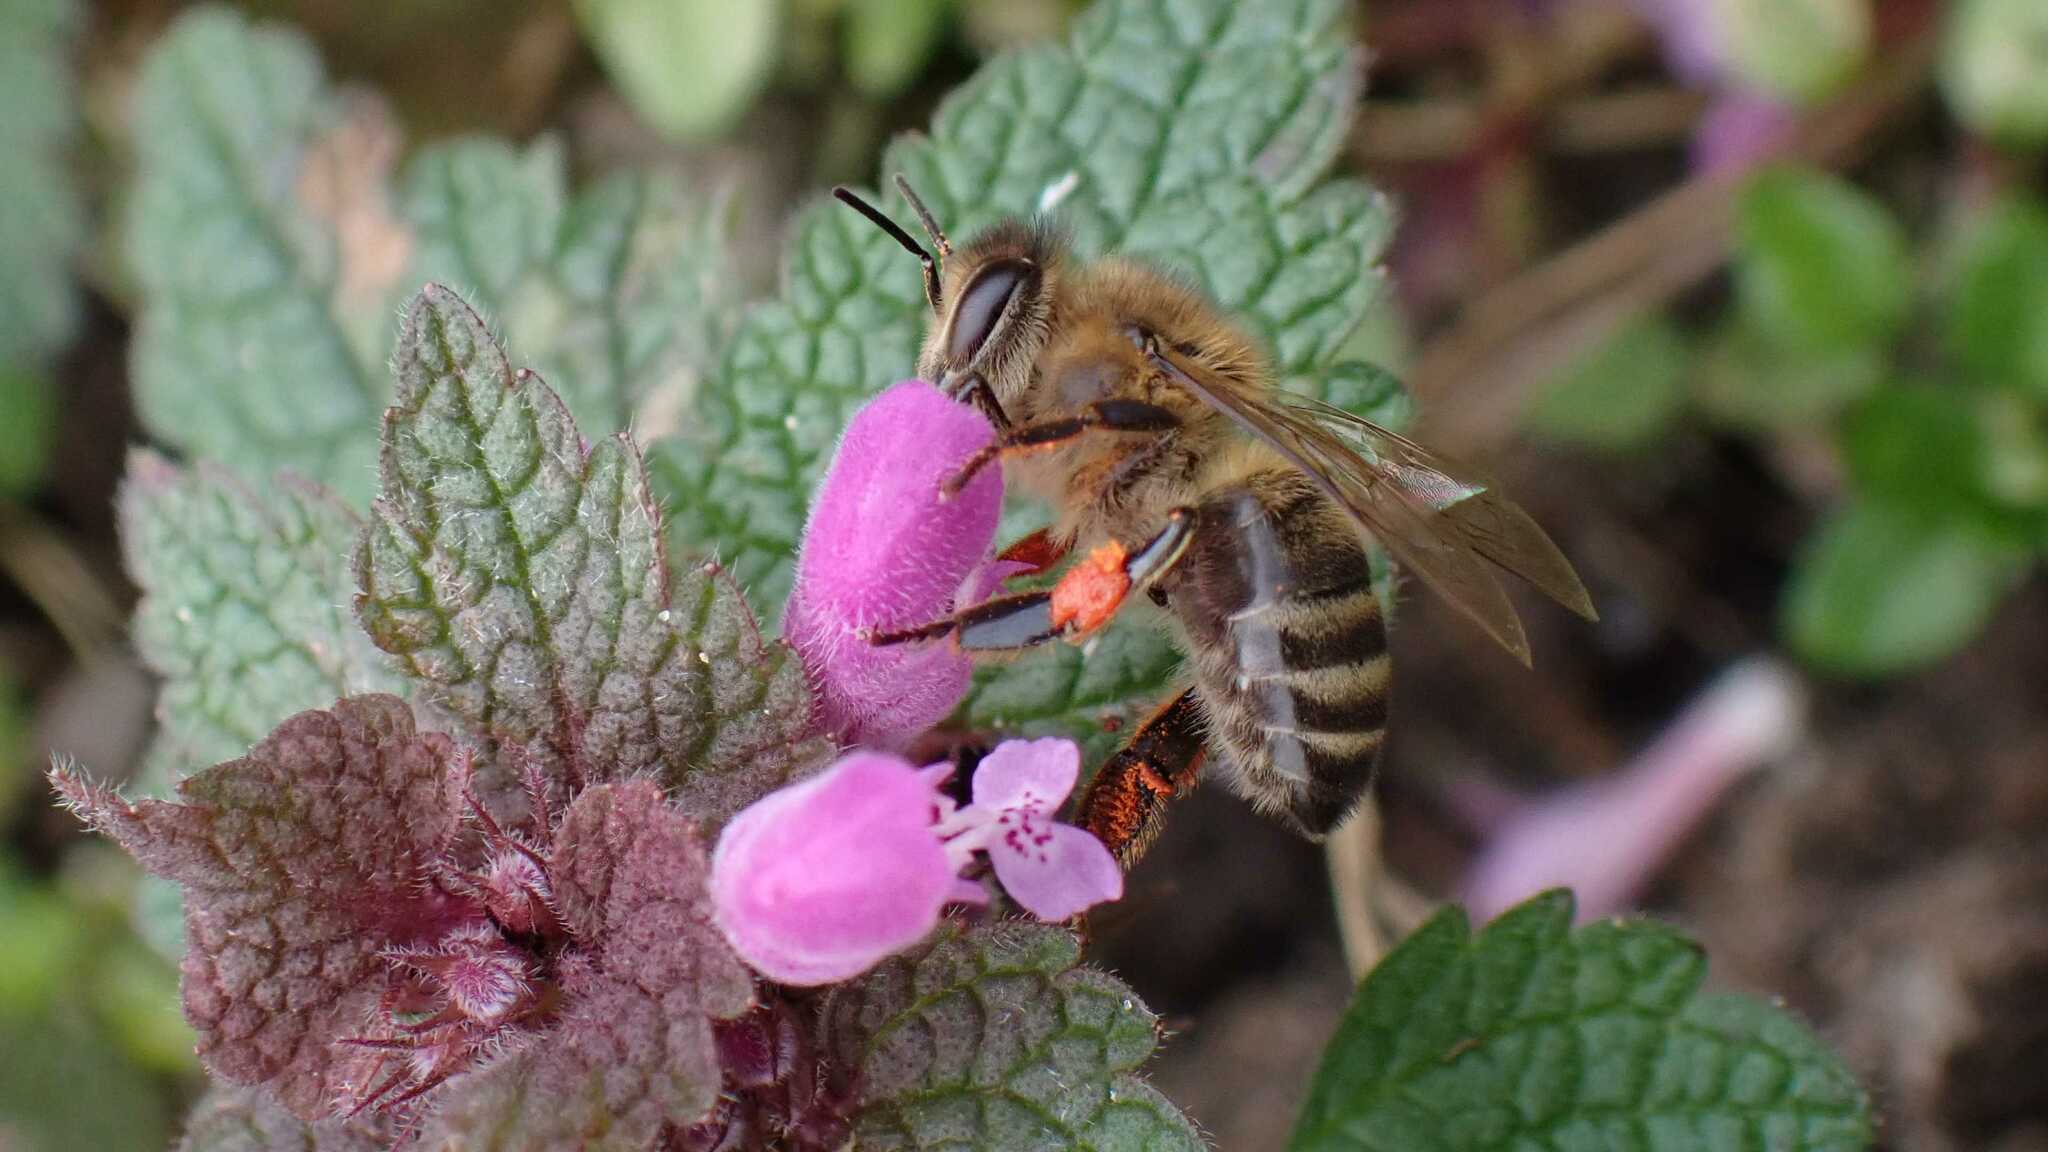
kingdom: Animalia
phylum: Arthropoda
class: Insecta
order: Hymenoptera
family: Apidae
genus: Apis
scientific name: Apis mellifera
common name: Honey bee
